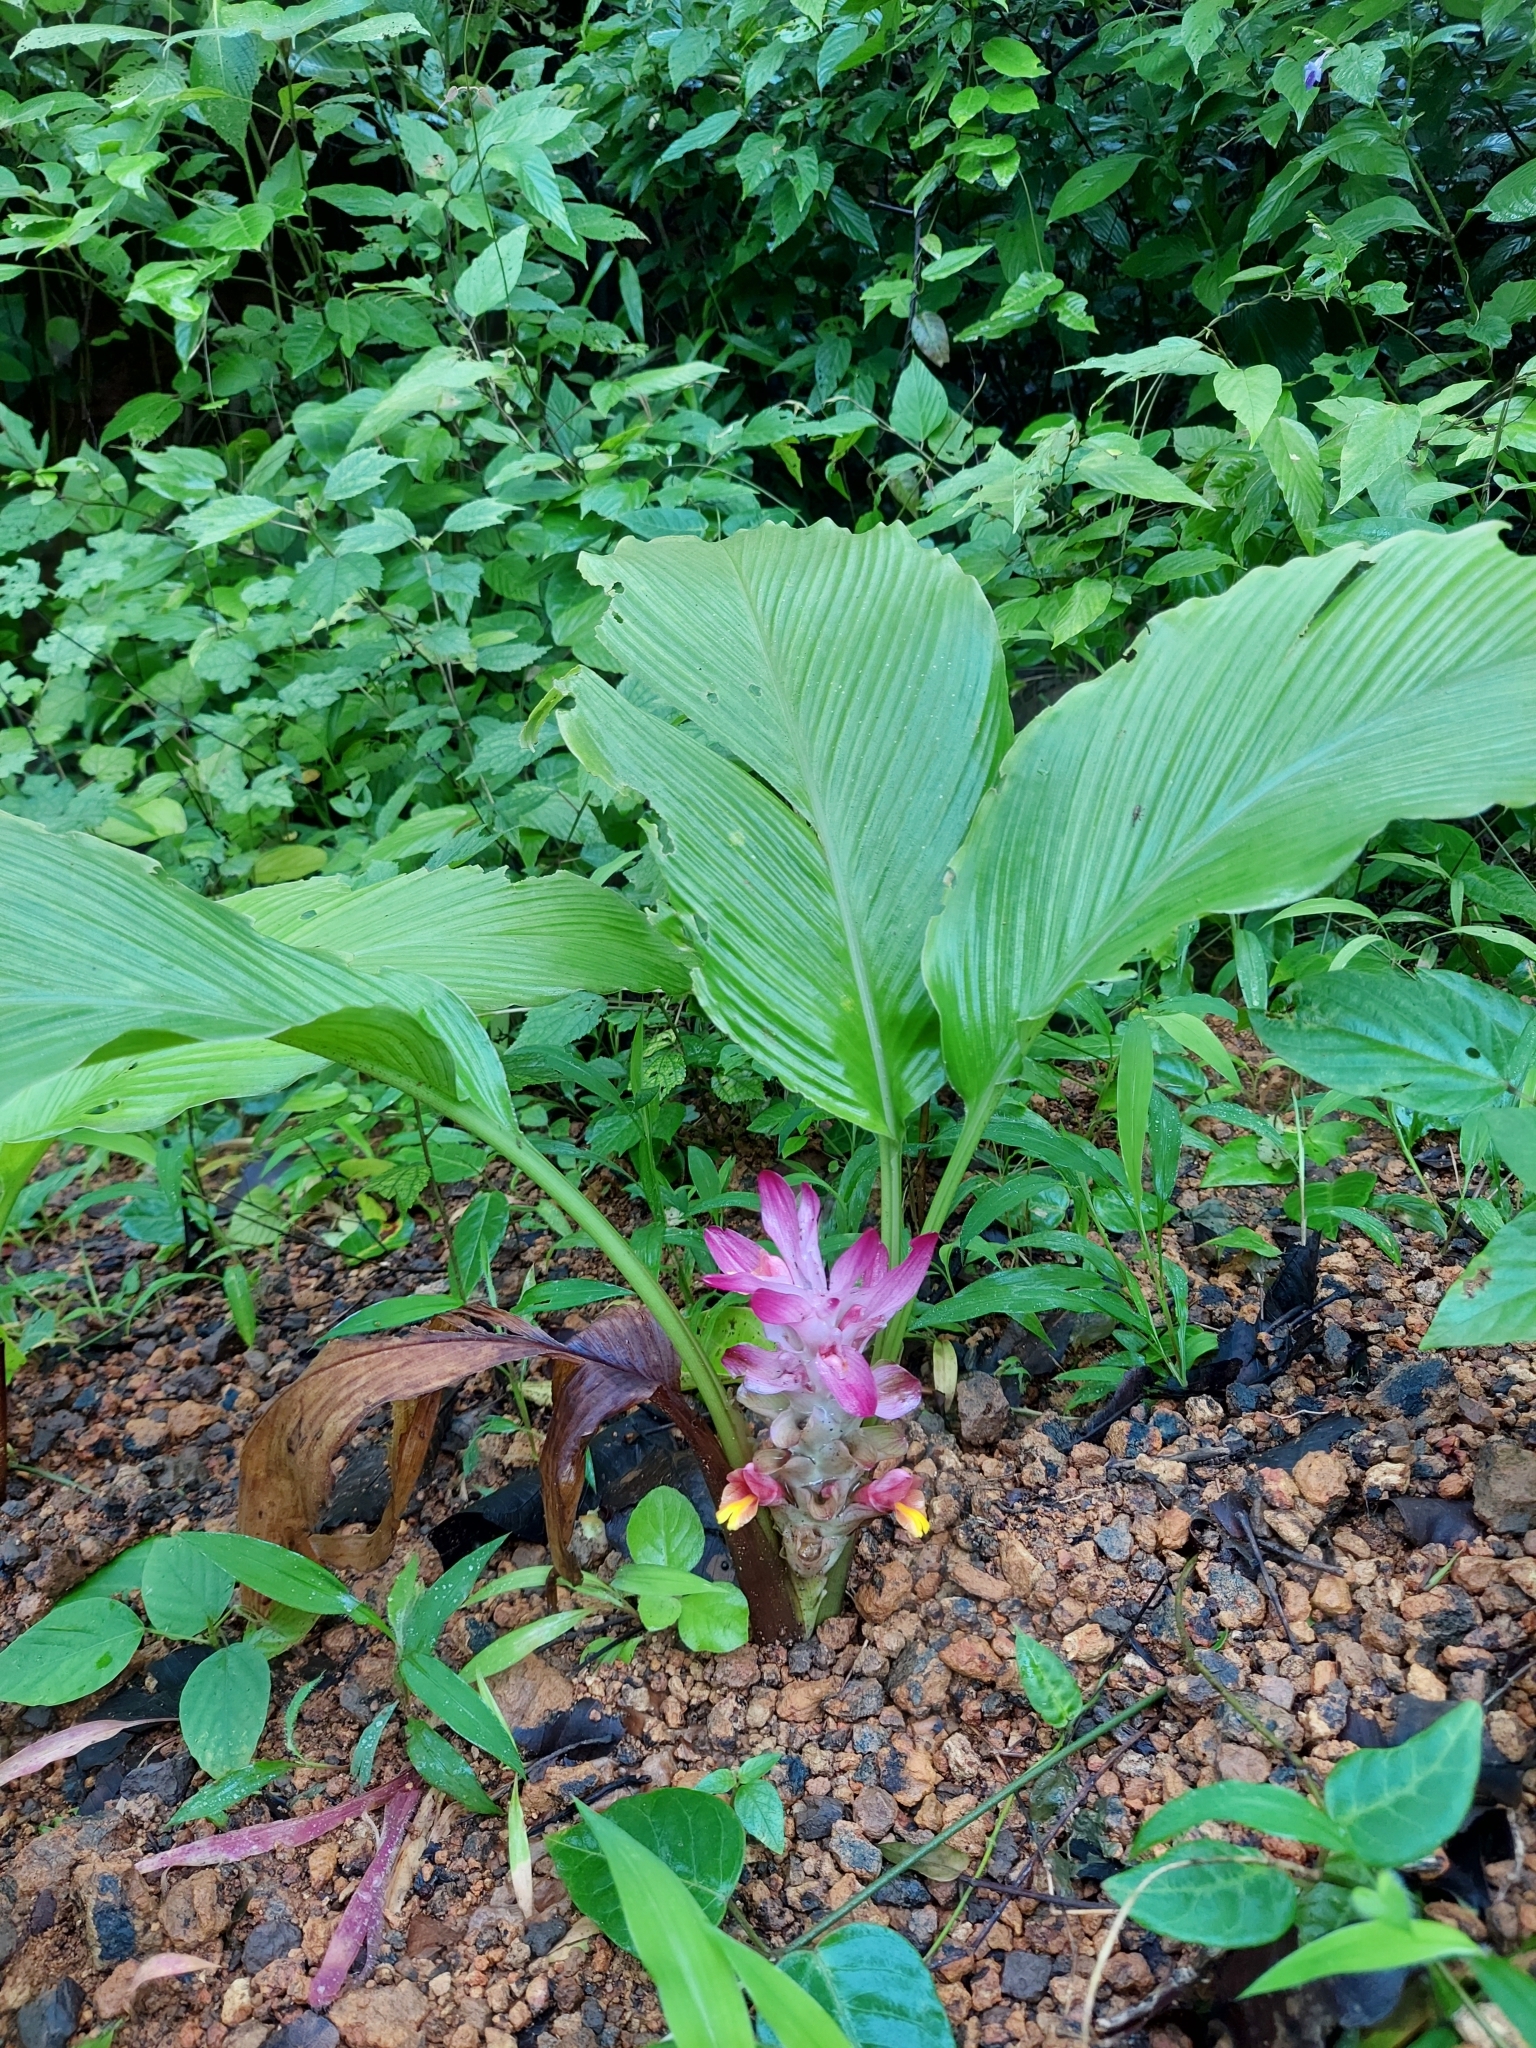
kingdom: Plantae
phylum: Tracheophyta
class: Liliopsida
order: Zingiberales
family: Zingiberaceae
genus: Curcuma
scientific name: Curcuma longa
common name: Turmeric
